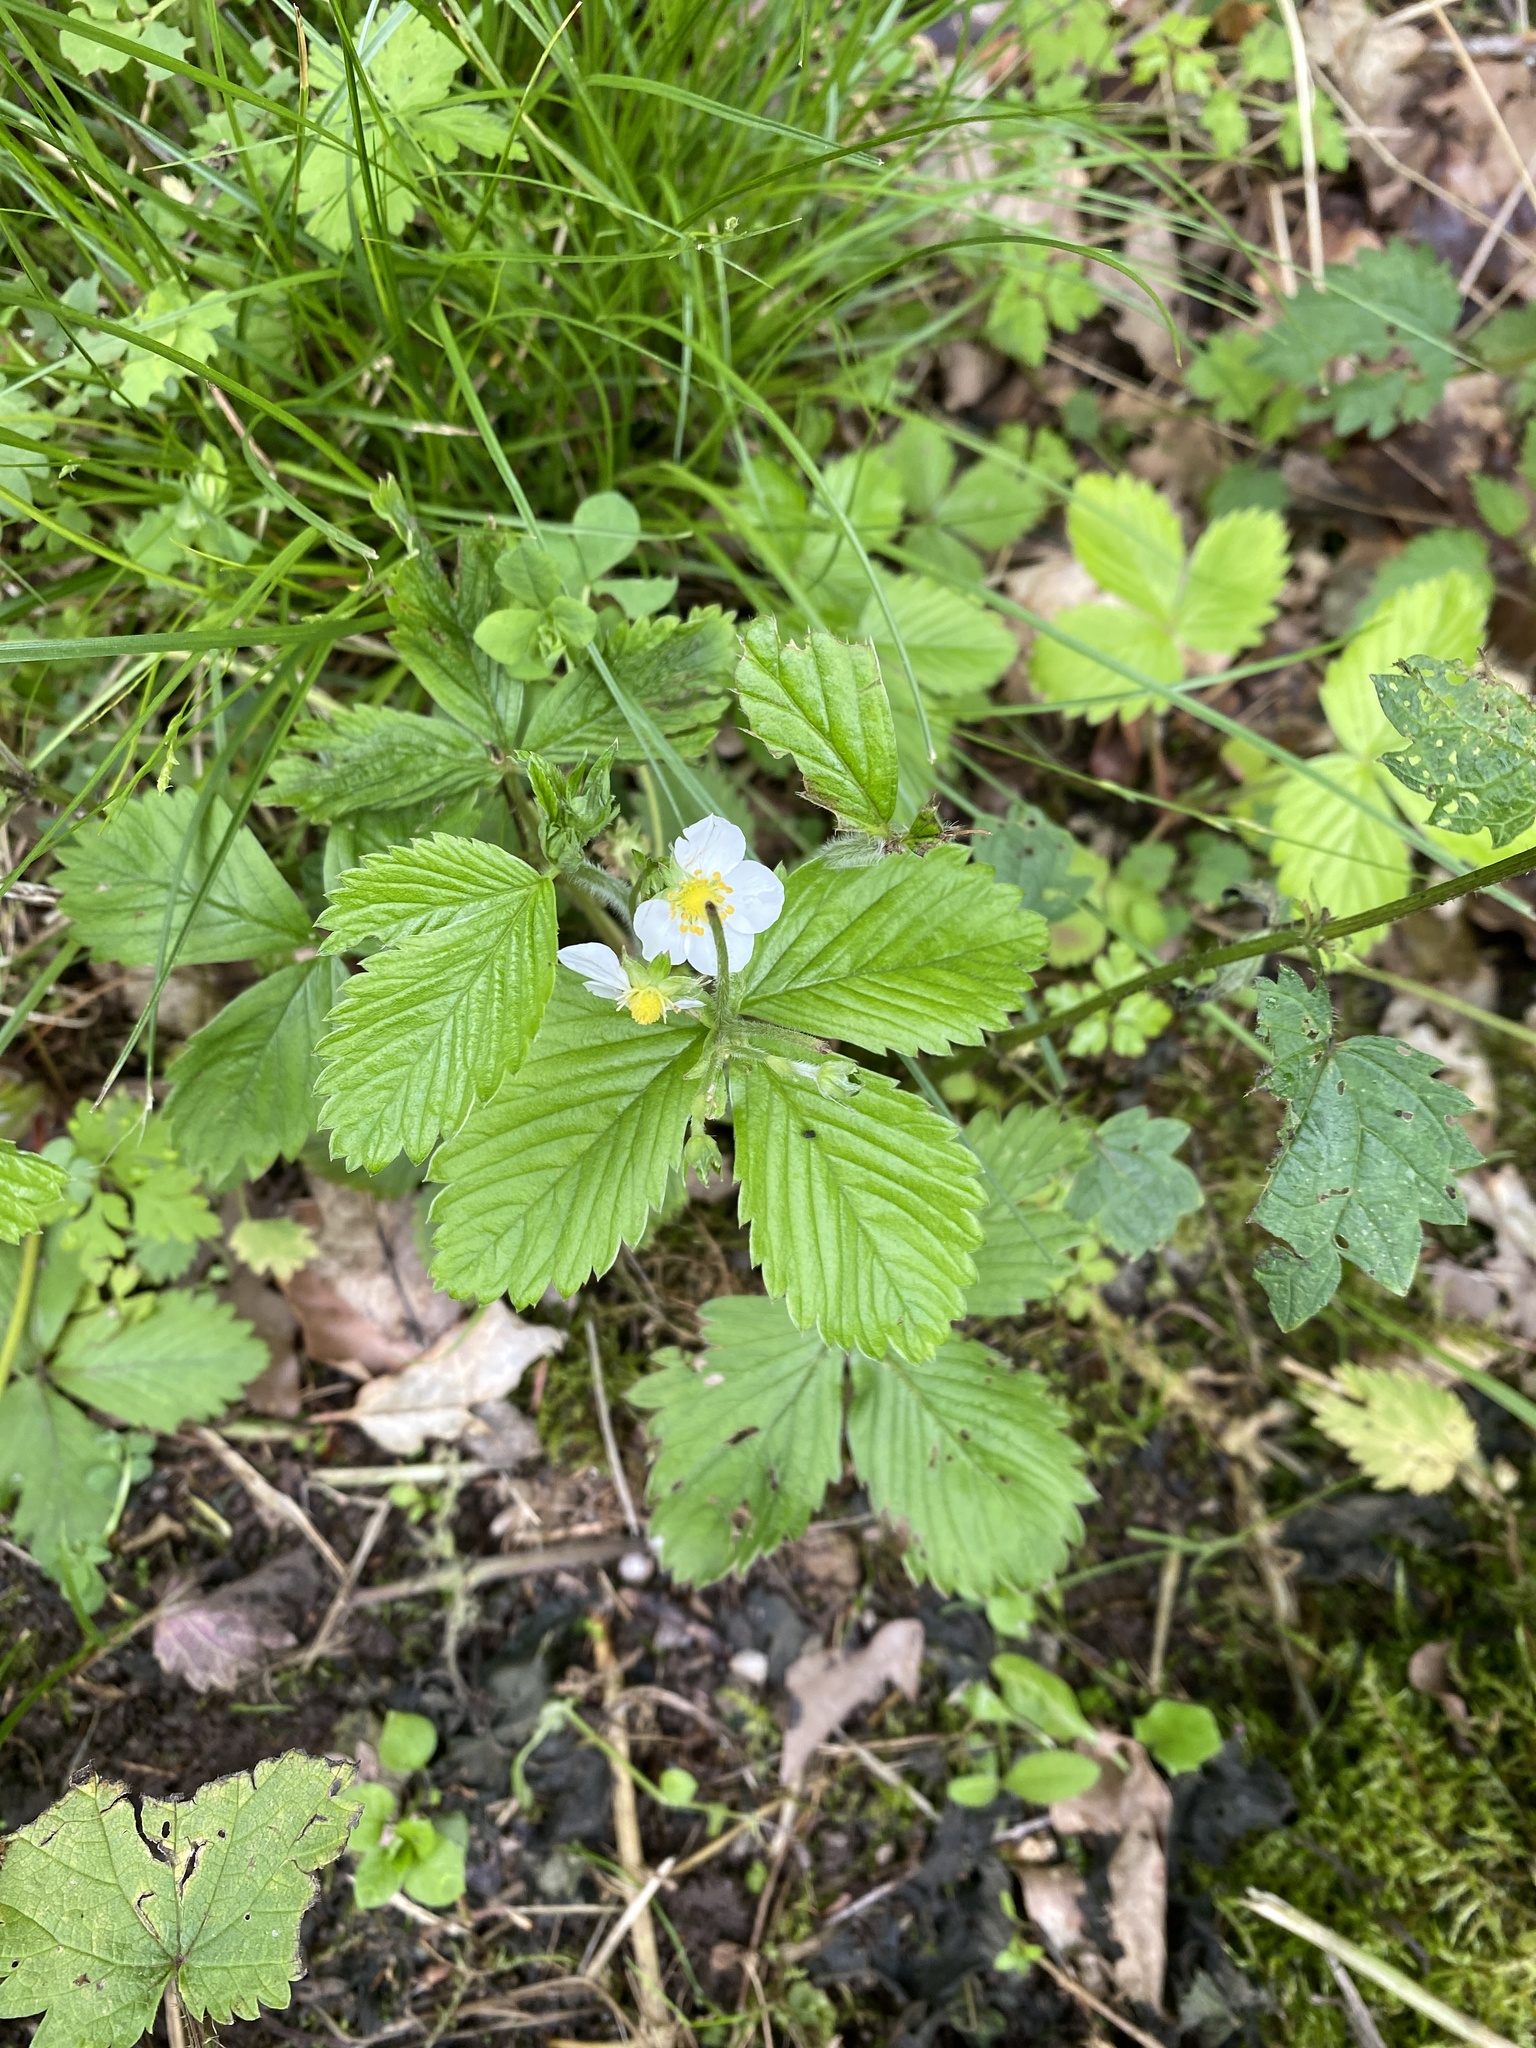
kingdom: Plantae
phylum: Tracheophyta
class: Magnoliopsida
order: Rosales
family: Rosaceae
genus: Fragaria
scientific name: Fragaria vesca
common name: Wild strawberry
